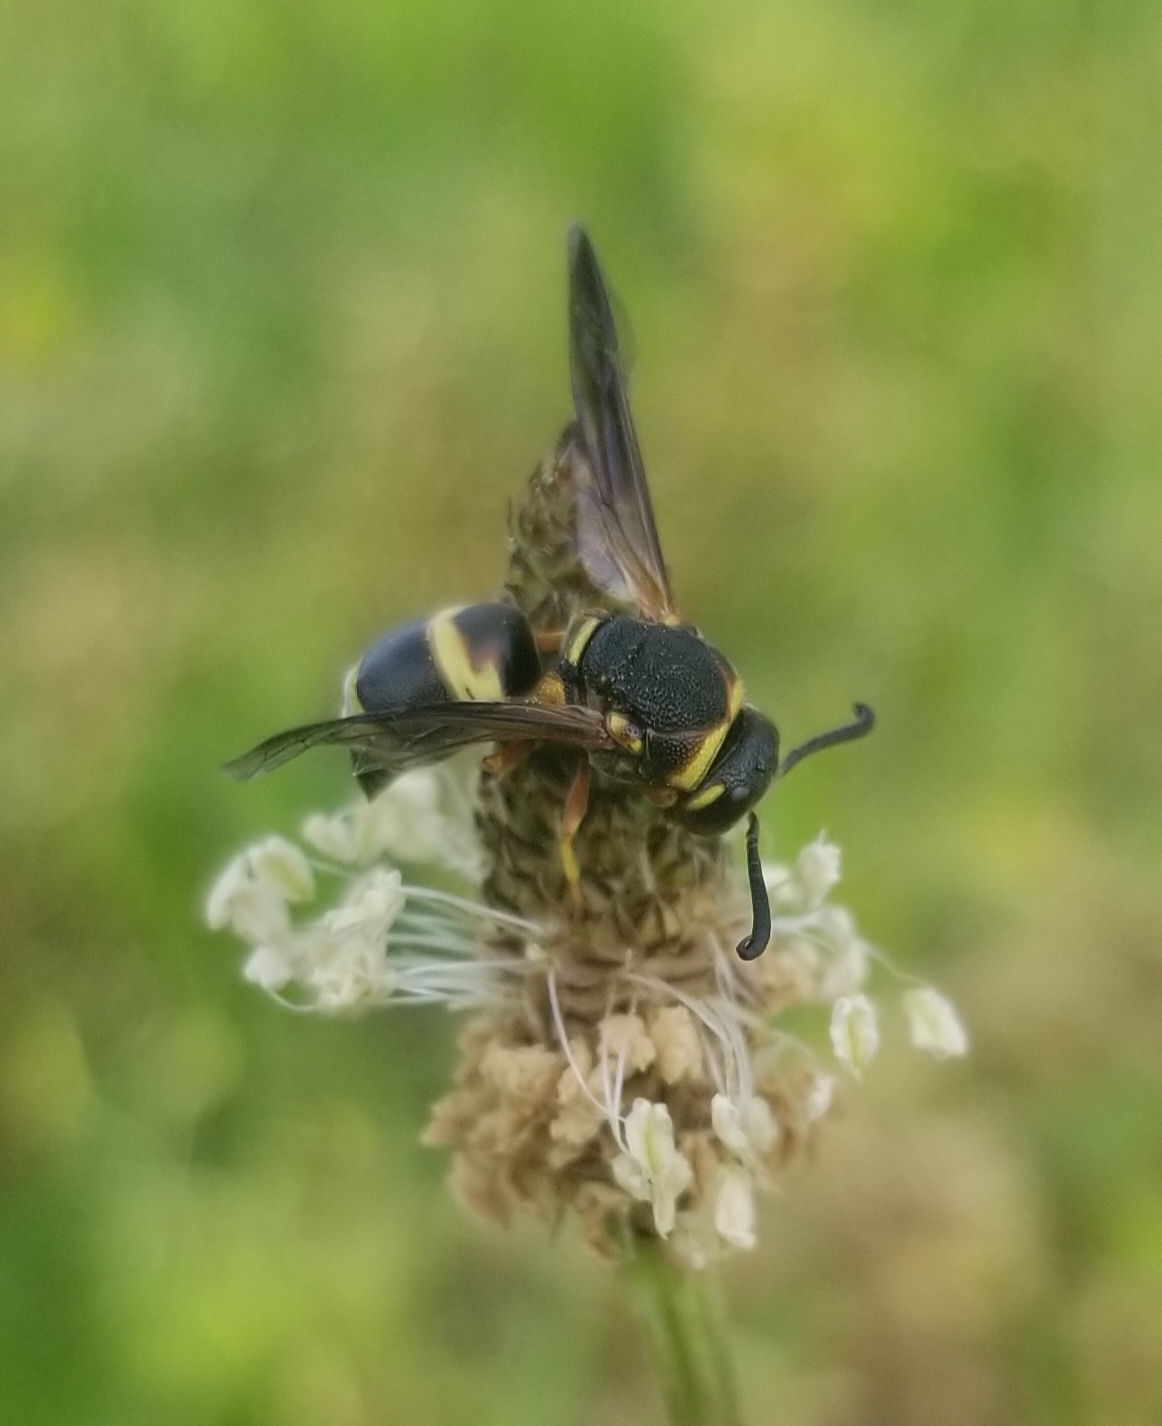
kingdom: Animalia
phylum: Arthropoda
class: Insecta
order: Hymenoptera
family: Eumenidae
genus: Euodynerus
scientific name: Euodynerus hidalgo
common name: Wasp
